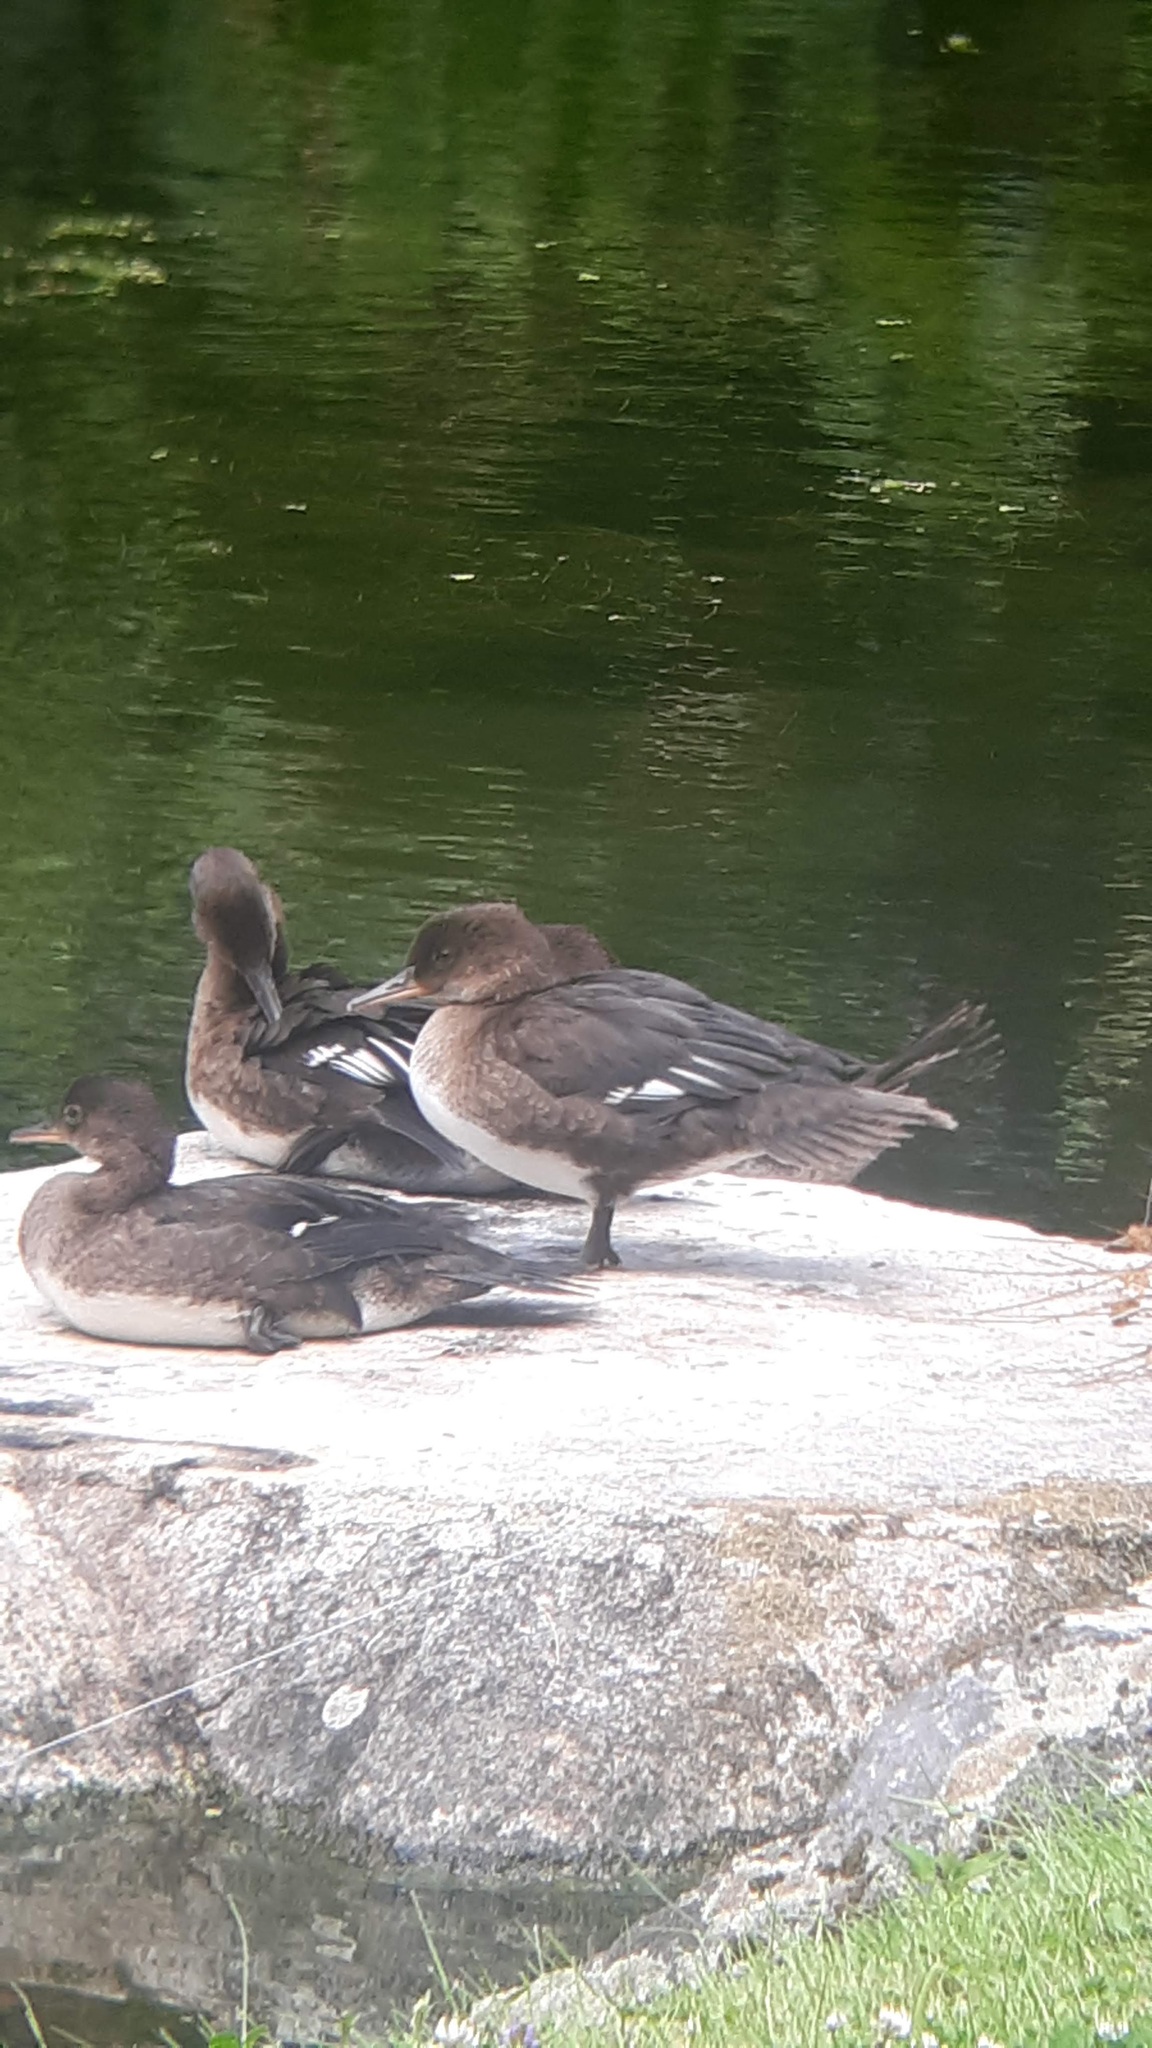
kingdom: Animalia
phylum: Chordata
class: Aves
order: Anseriformes
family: Anatidae
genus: Lophodytes
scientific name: Lophodytes cucullatus
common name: Hooded merganser
